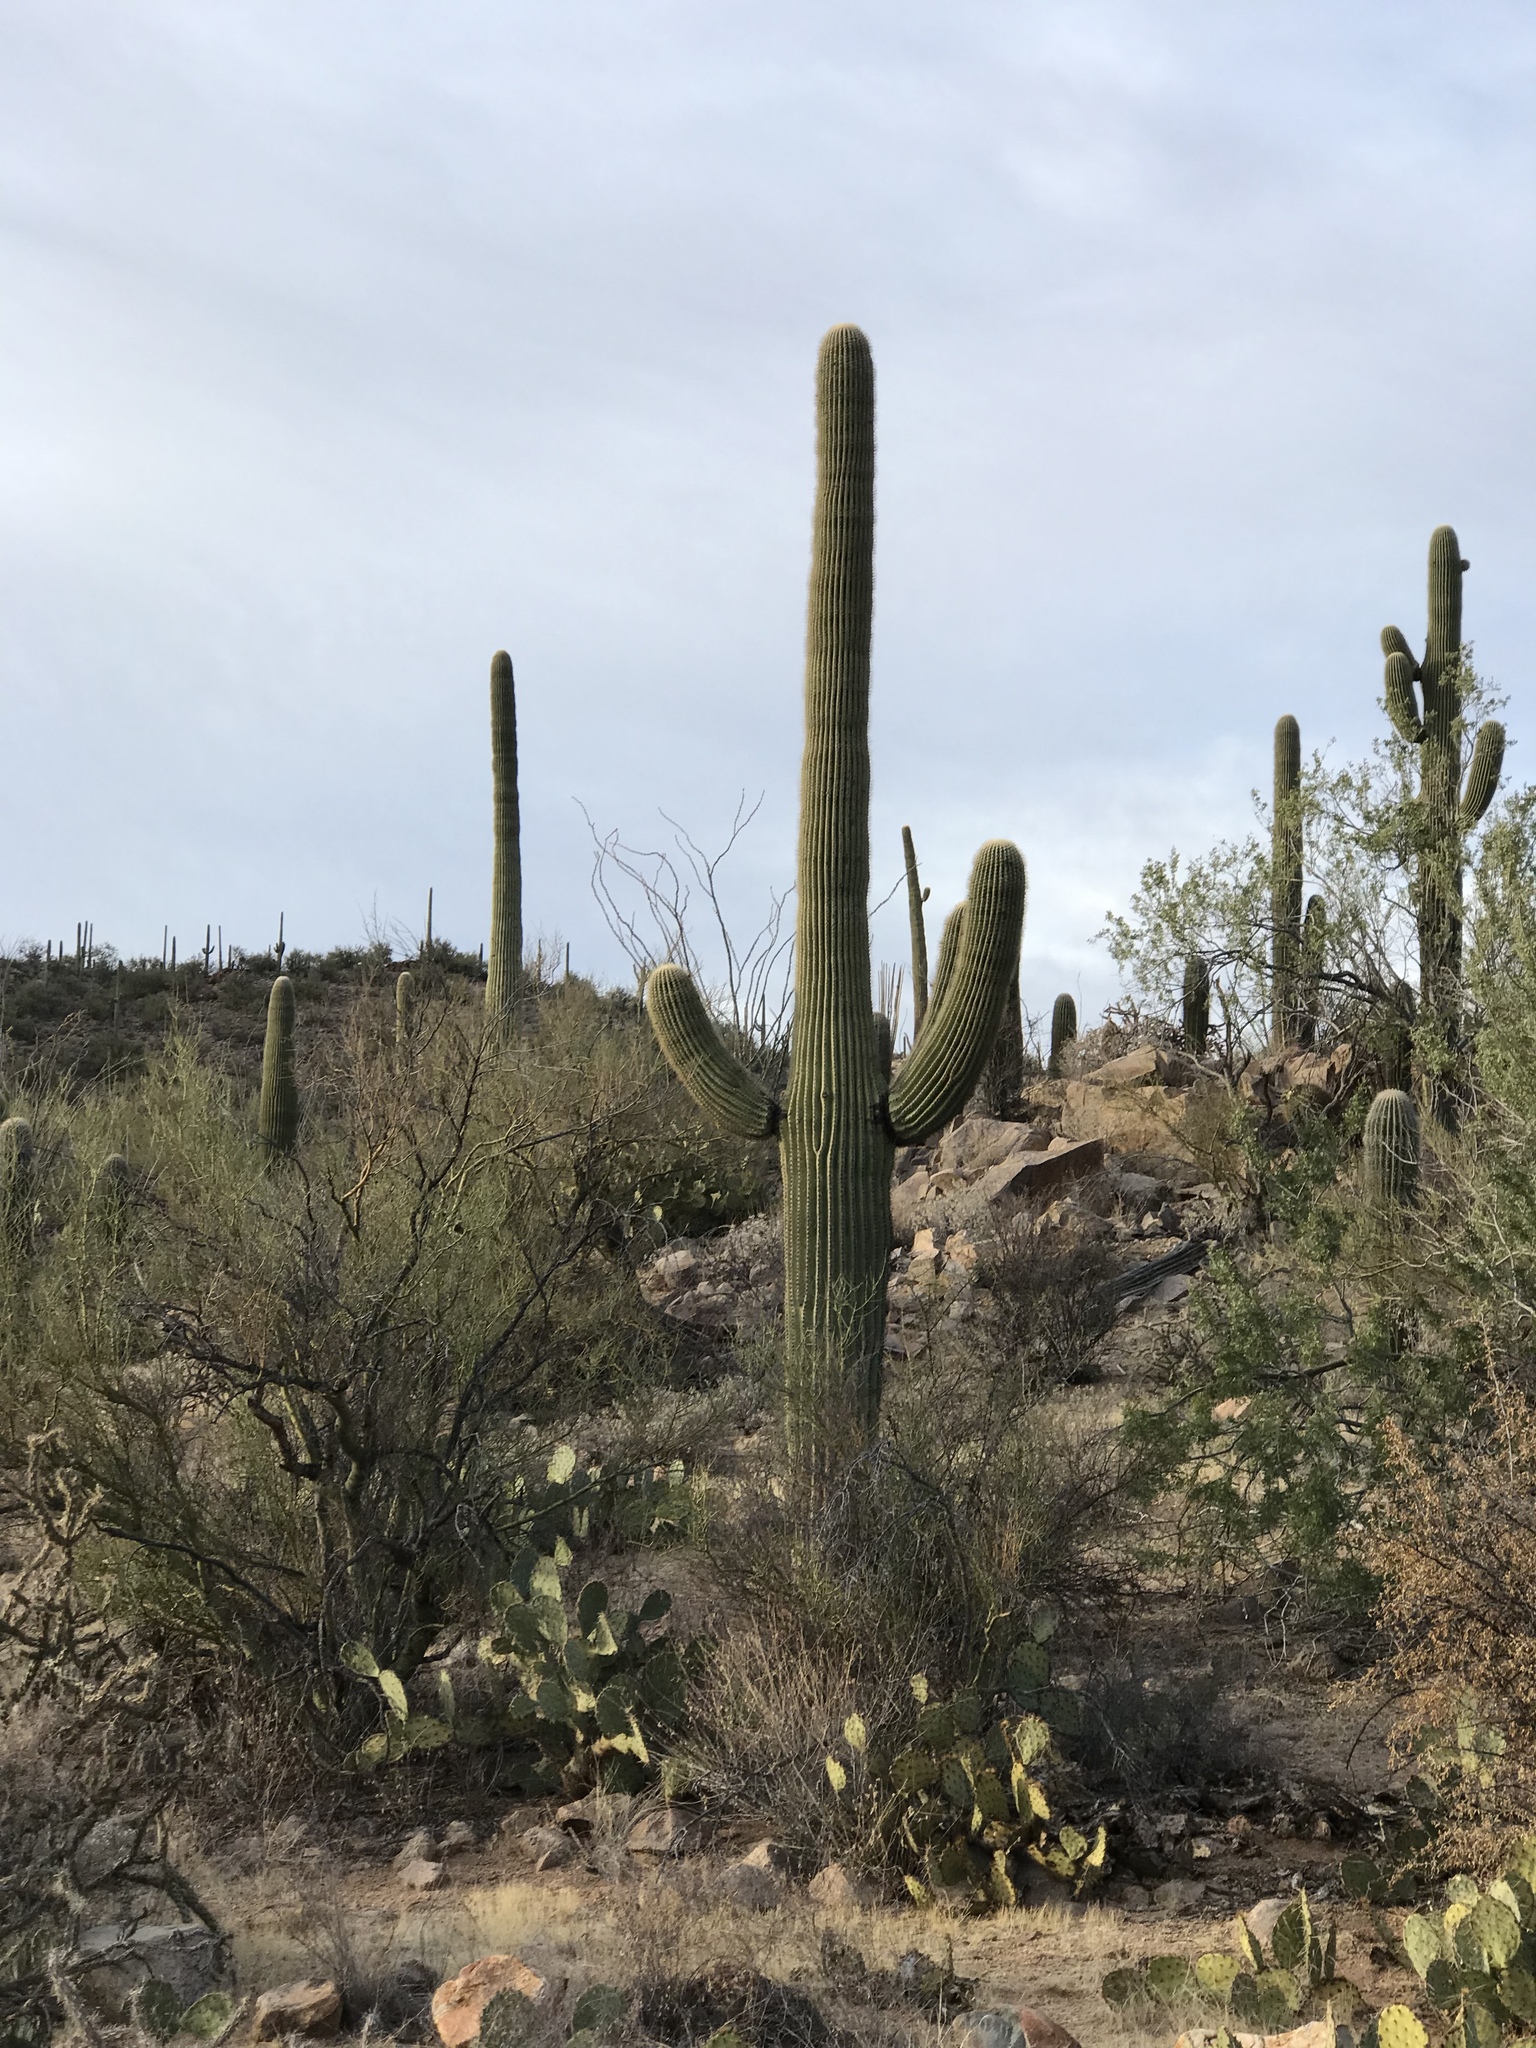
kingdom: Plantae
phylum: Tracheophyta
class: Magnoliopsida
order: Caryophyllales
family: Cactaceae
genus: Carnegiea
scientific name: Carnegiea gigantea
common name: Saguaro
